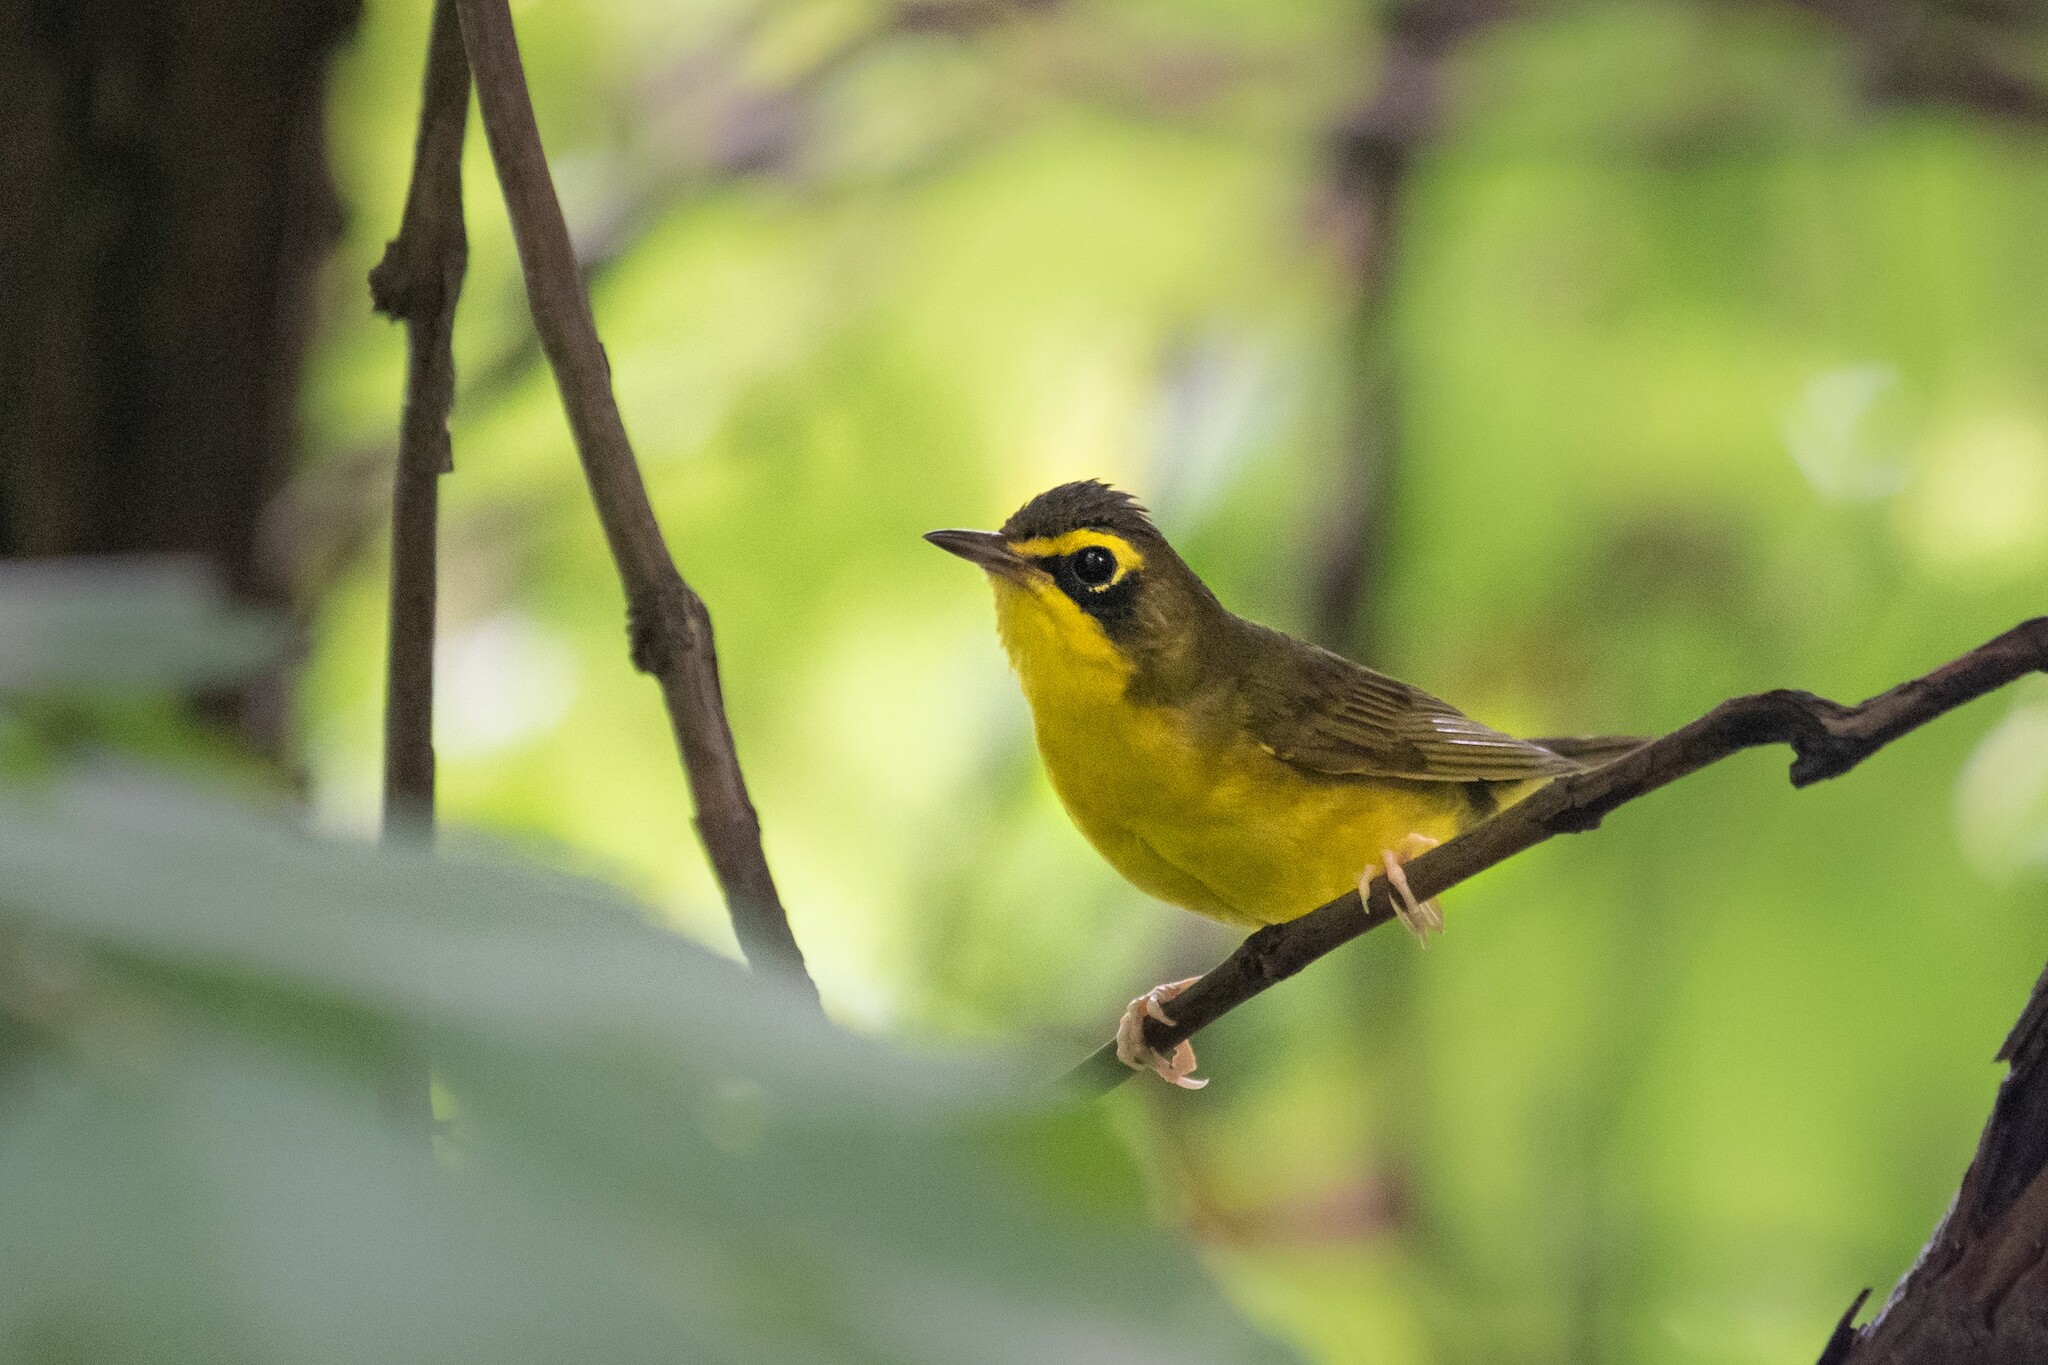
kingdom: Animalia
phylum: Chordata
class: Aves
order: Passeriformes
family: Parulidae
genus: Geothlypis
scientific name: Geothlypis formosa
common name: Kentucky warbler
